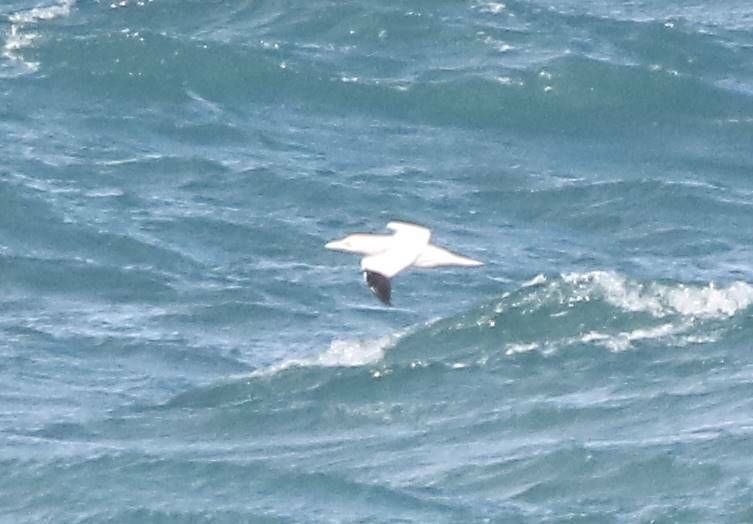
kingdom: Animalia
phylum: Chordata
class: Aves
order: Suliformes
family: Sulidae
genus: Morus
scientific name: Morus bassanus
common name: Northern gannet
